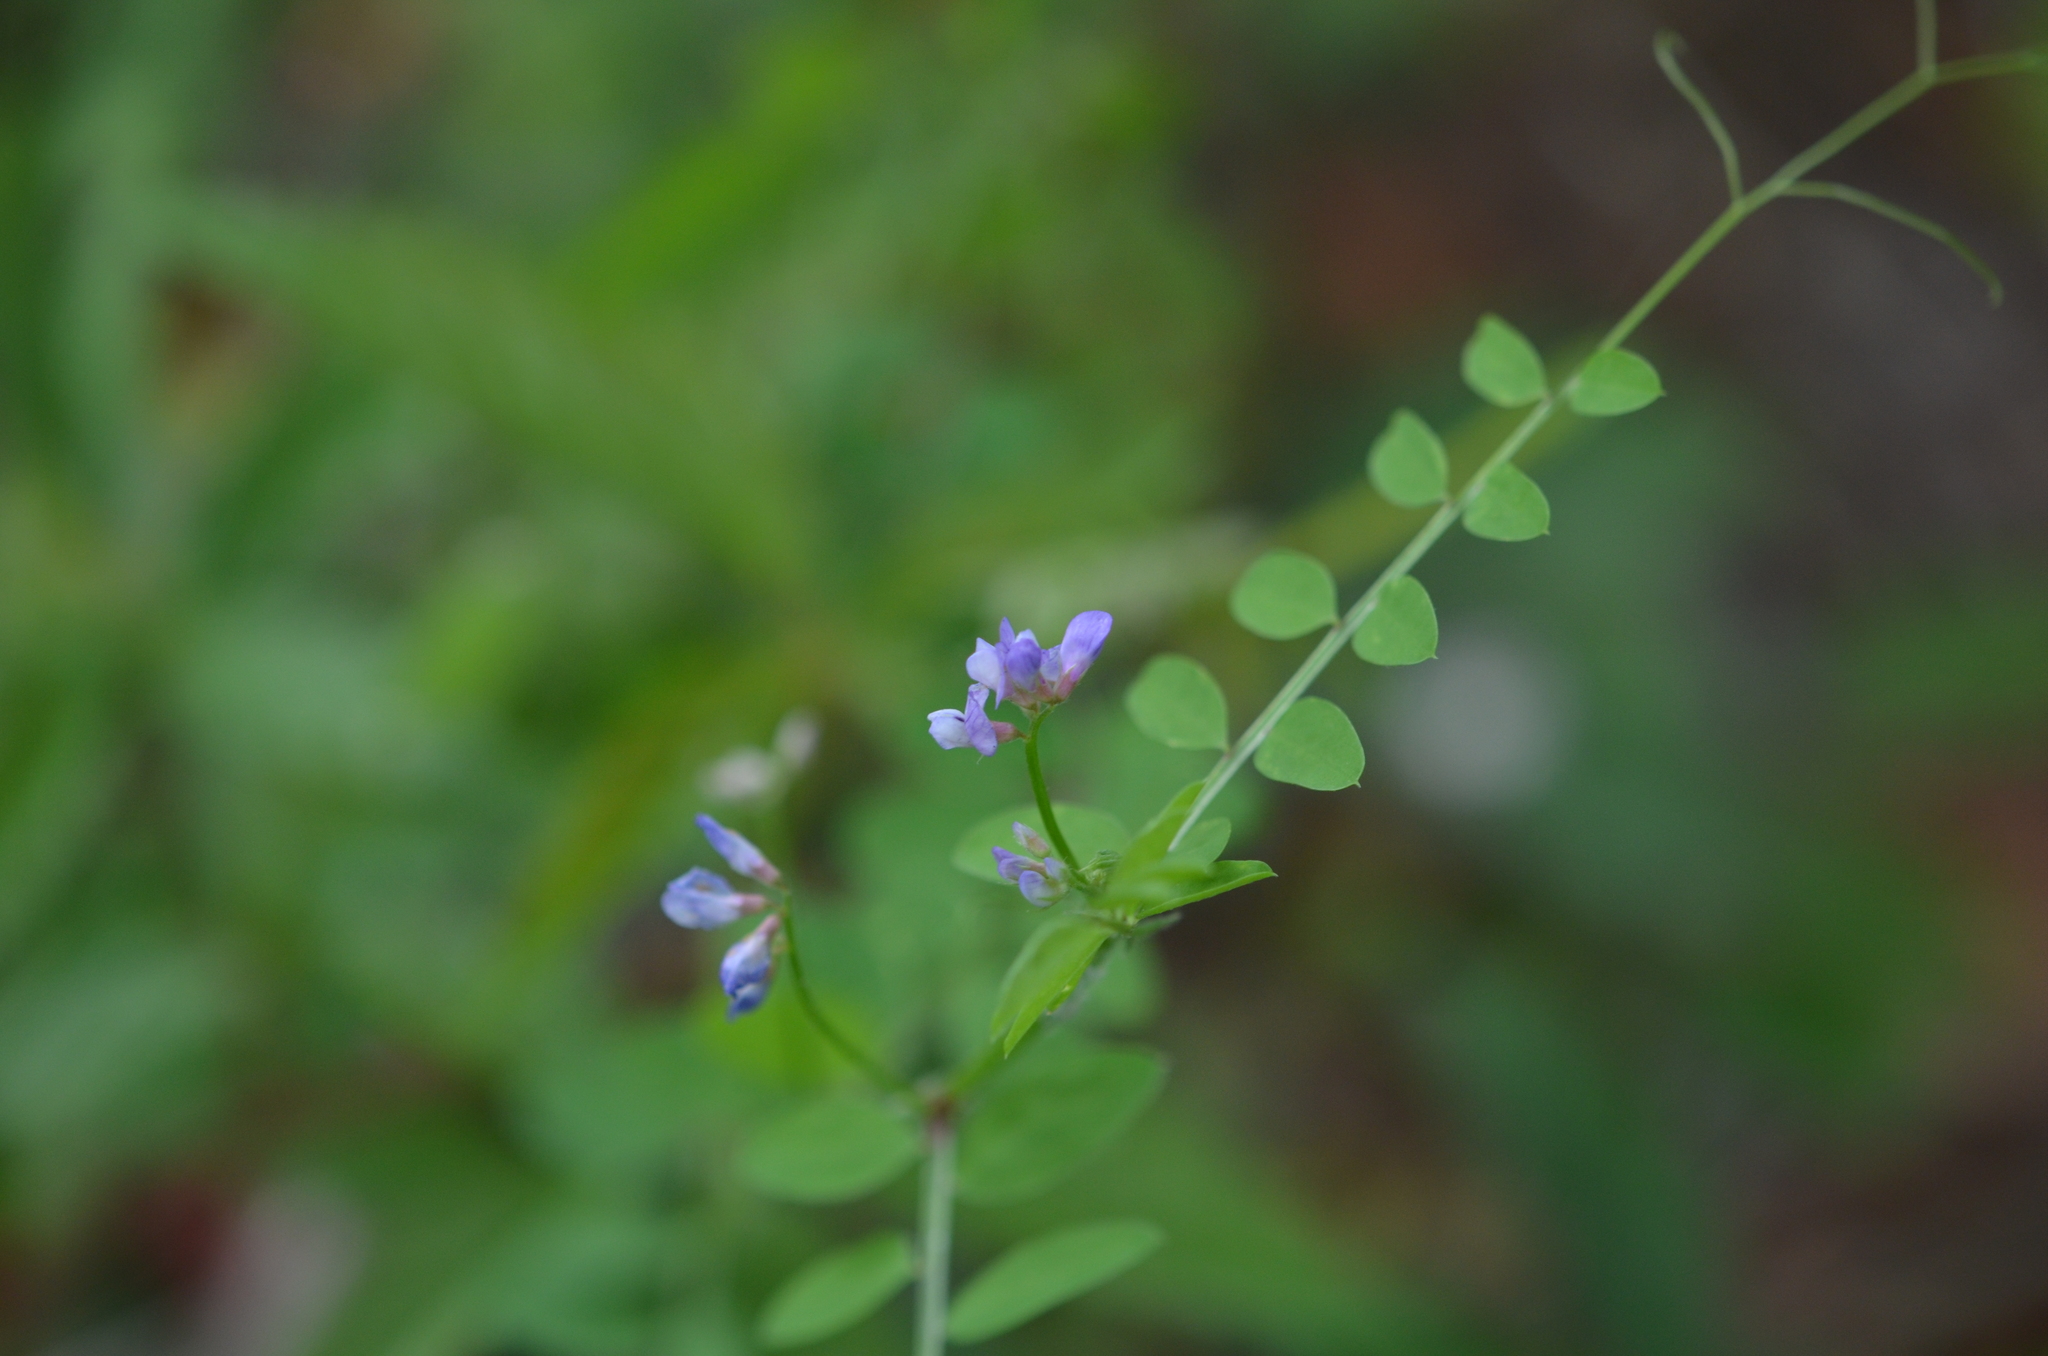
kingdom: Plantae
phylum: Tracheophyta
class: Magnoliopsida
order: Fabales
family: Fabaceae
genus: Vicia
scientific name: Vicia ludoviciana
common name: Louisiana vetch
